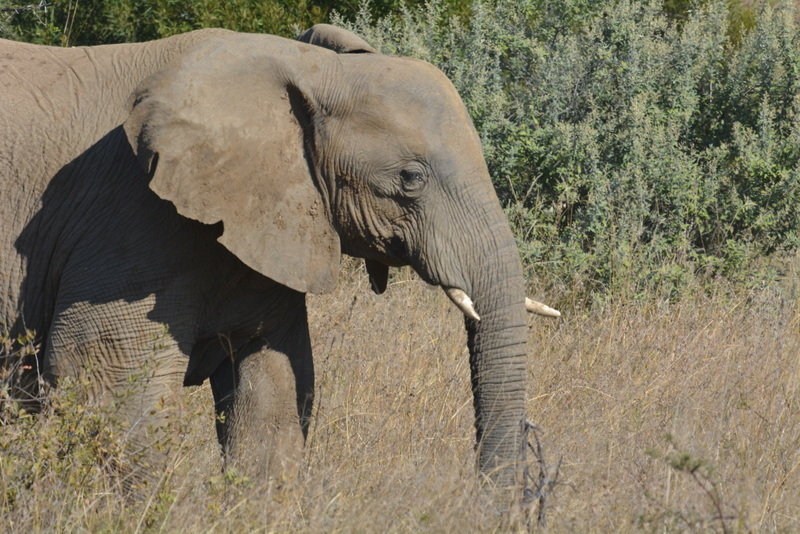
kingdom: Animalia
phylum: Chordata
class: Mammalia
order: Proboscidea
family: Elephantidae
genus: Loxodonta
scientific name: Loxodonta africana
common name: African elephant
